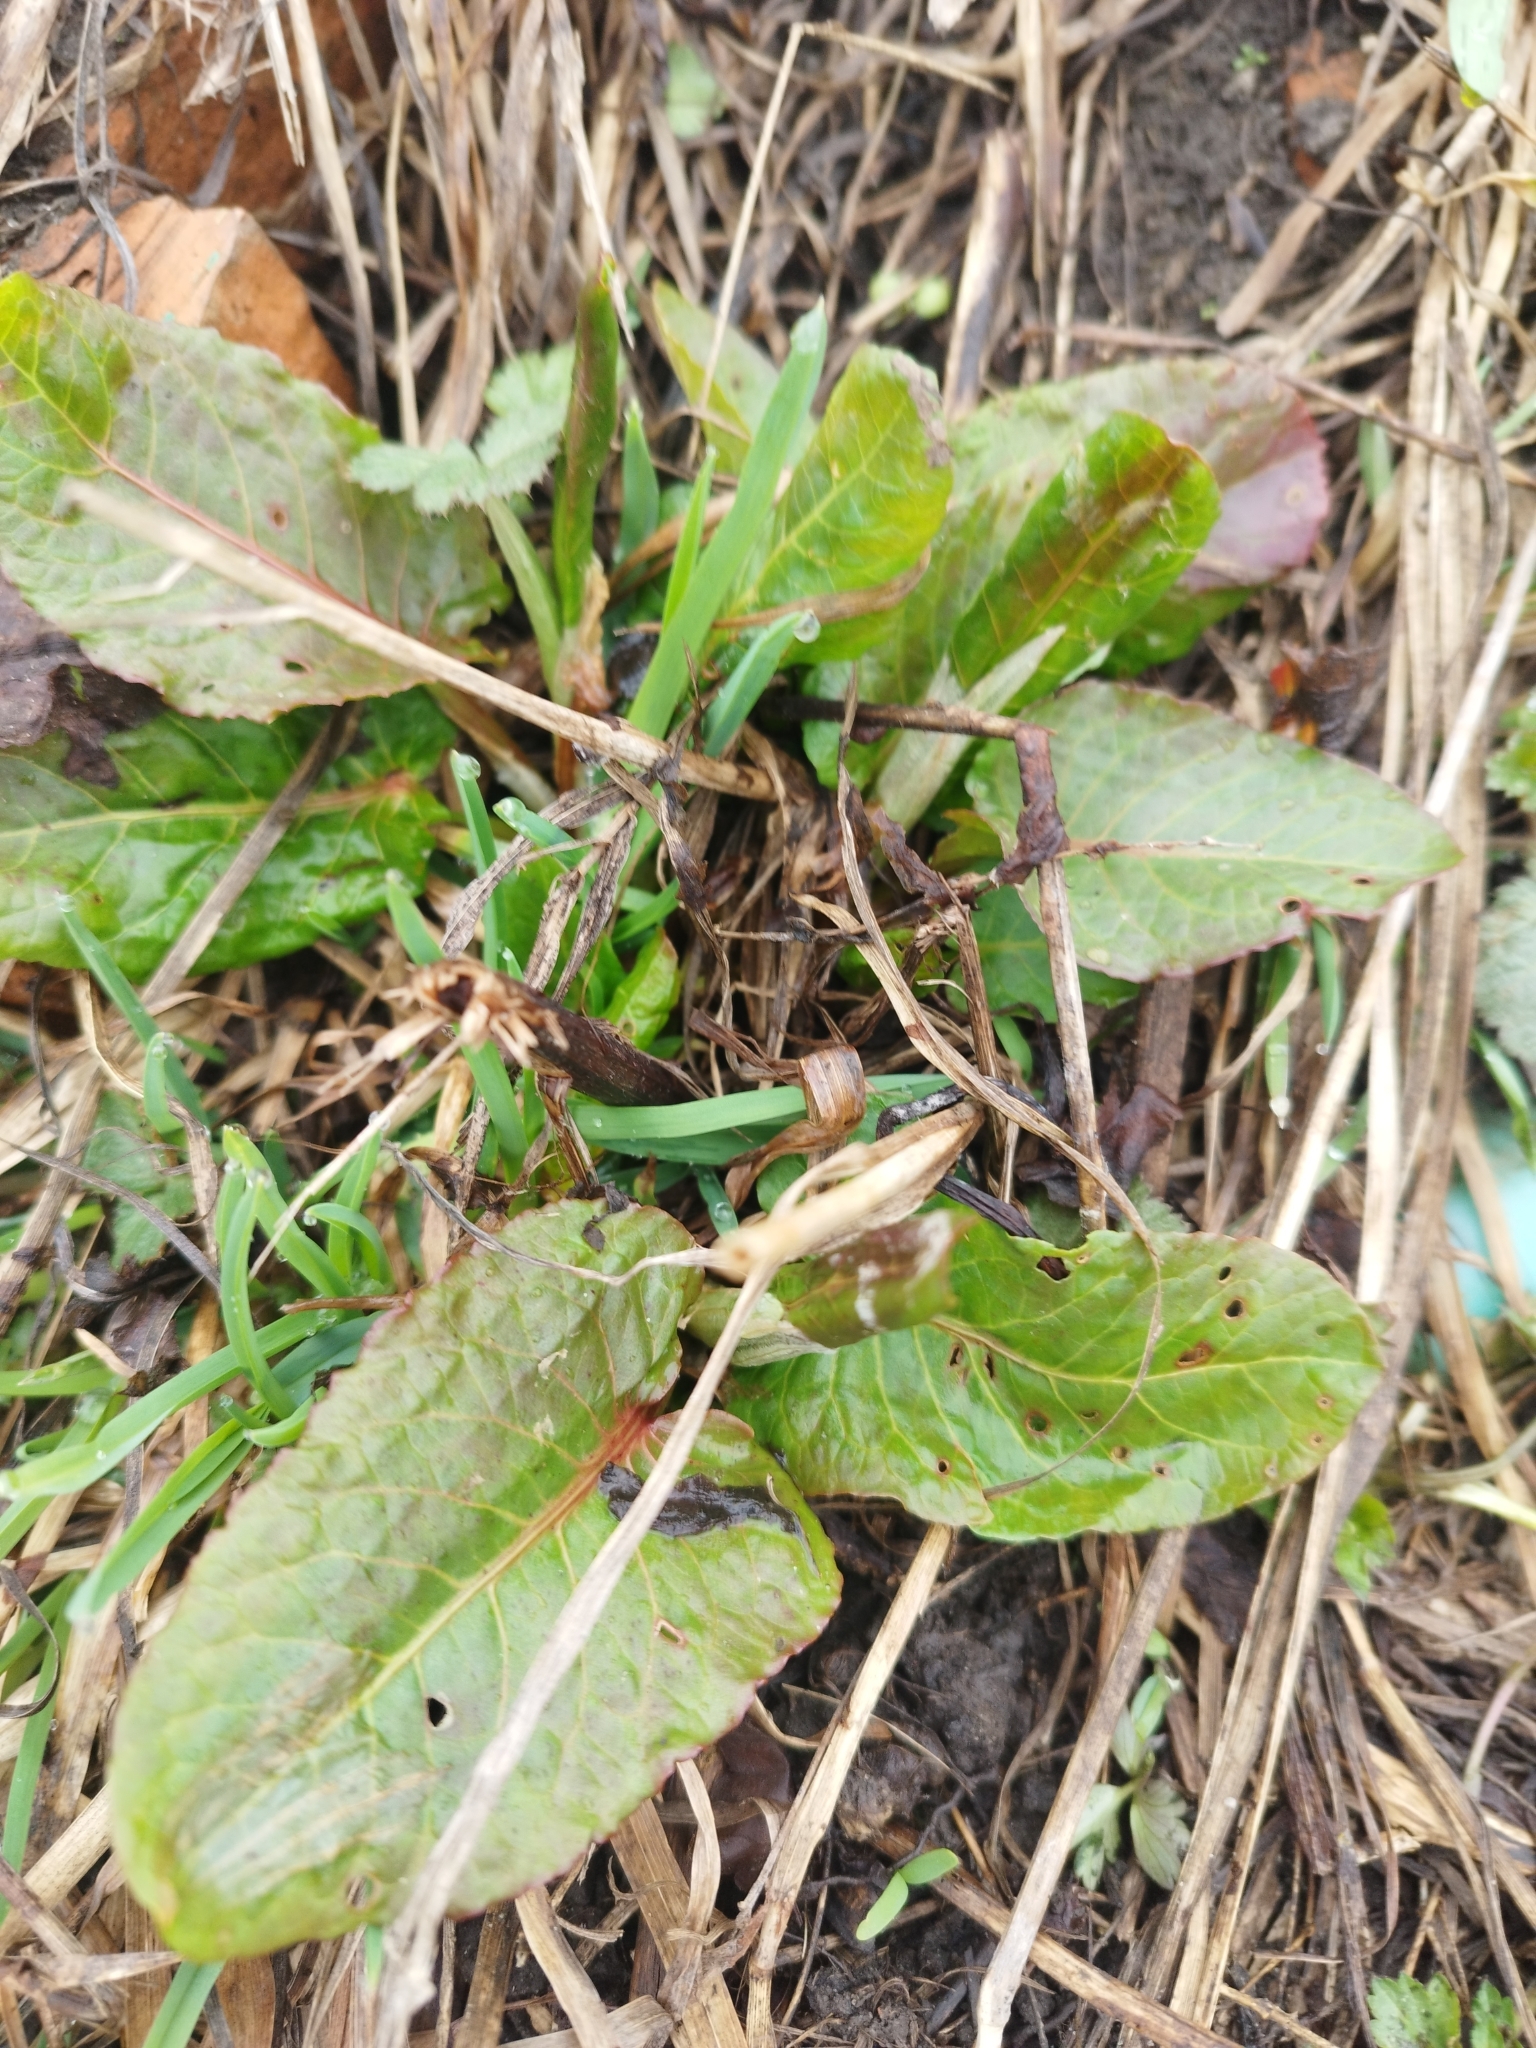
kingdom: Plantae
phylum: Tracheophyta
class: Magnoliopsida
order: Caryophyllales
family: Polygonaceae
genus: Rumex
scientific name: Rumex obtusifolius
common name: Bitter dock
